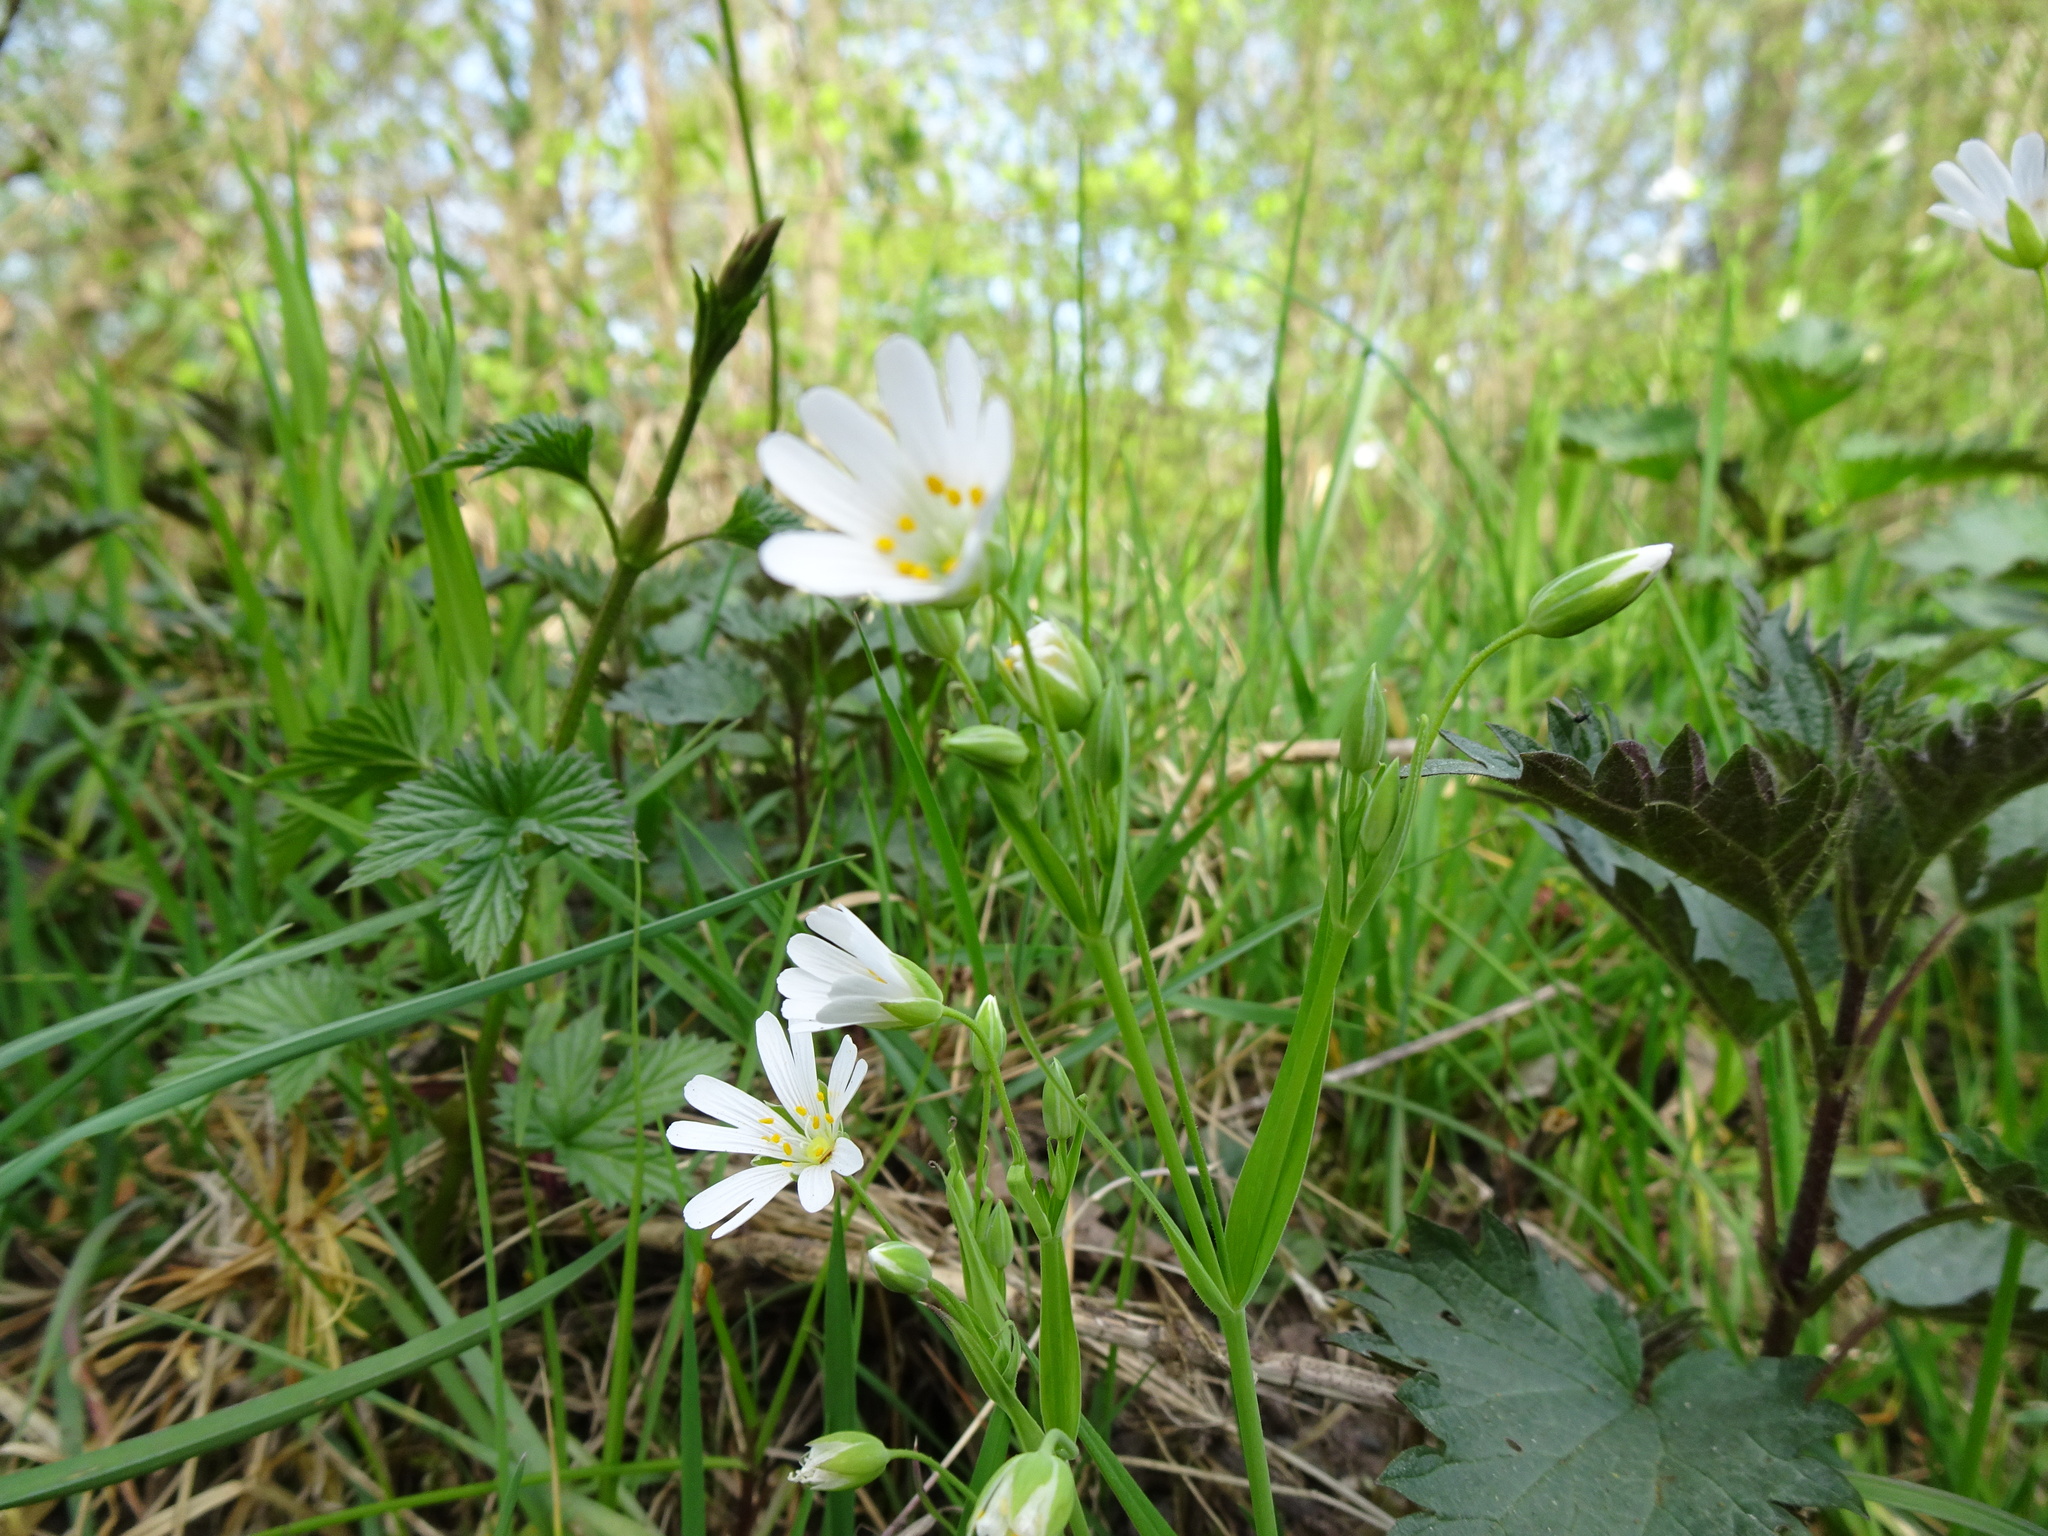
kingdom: Plantae
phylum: Tracheophyta
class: Magnoliopsida
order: Caryophyllales
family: Caryophyllaceae
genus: Rabelera
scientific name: Rabelera holostea
